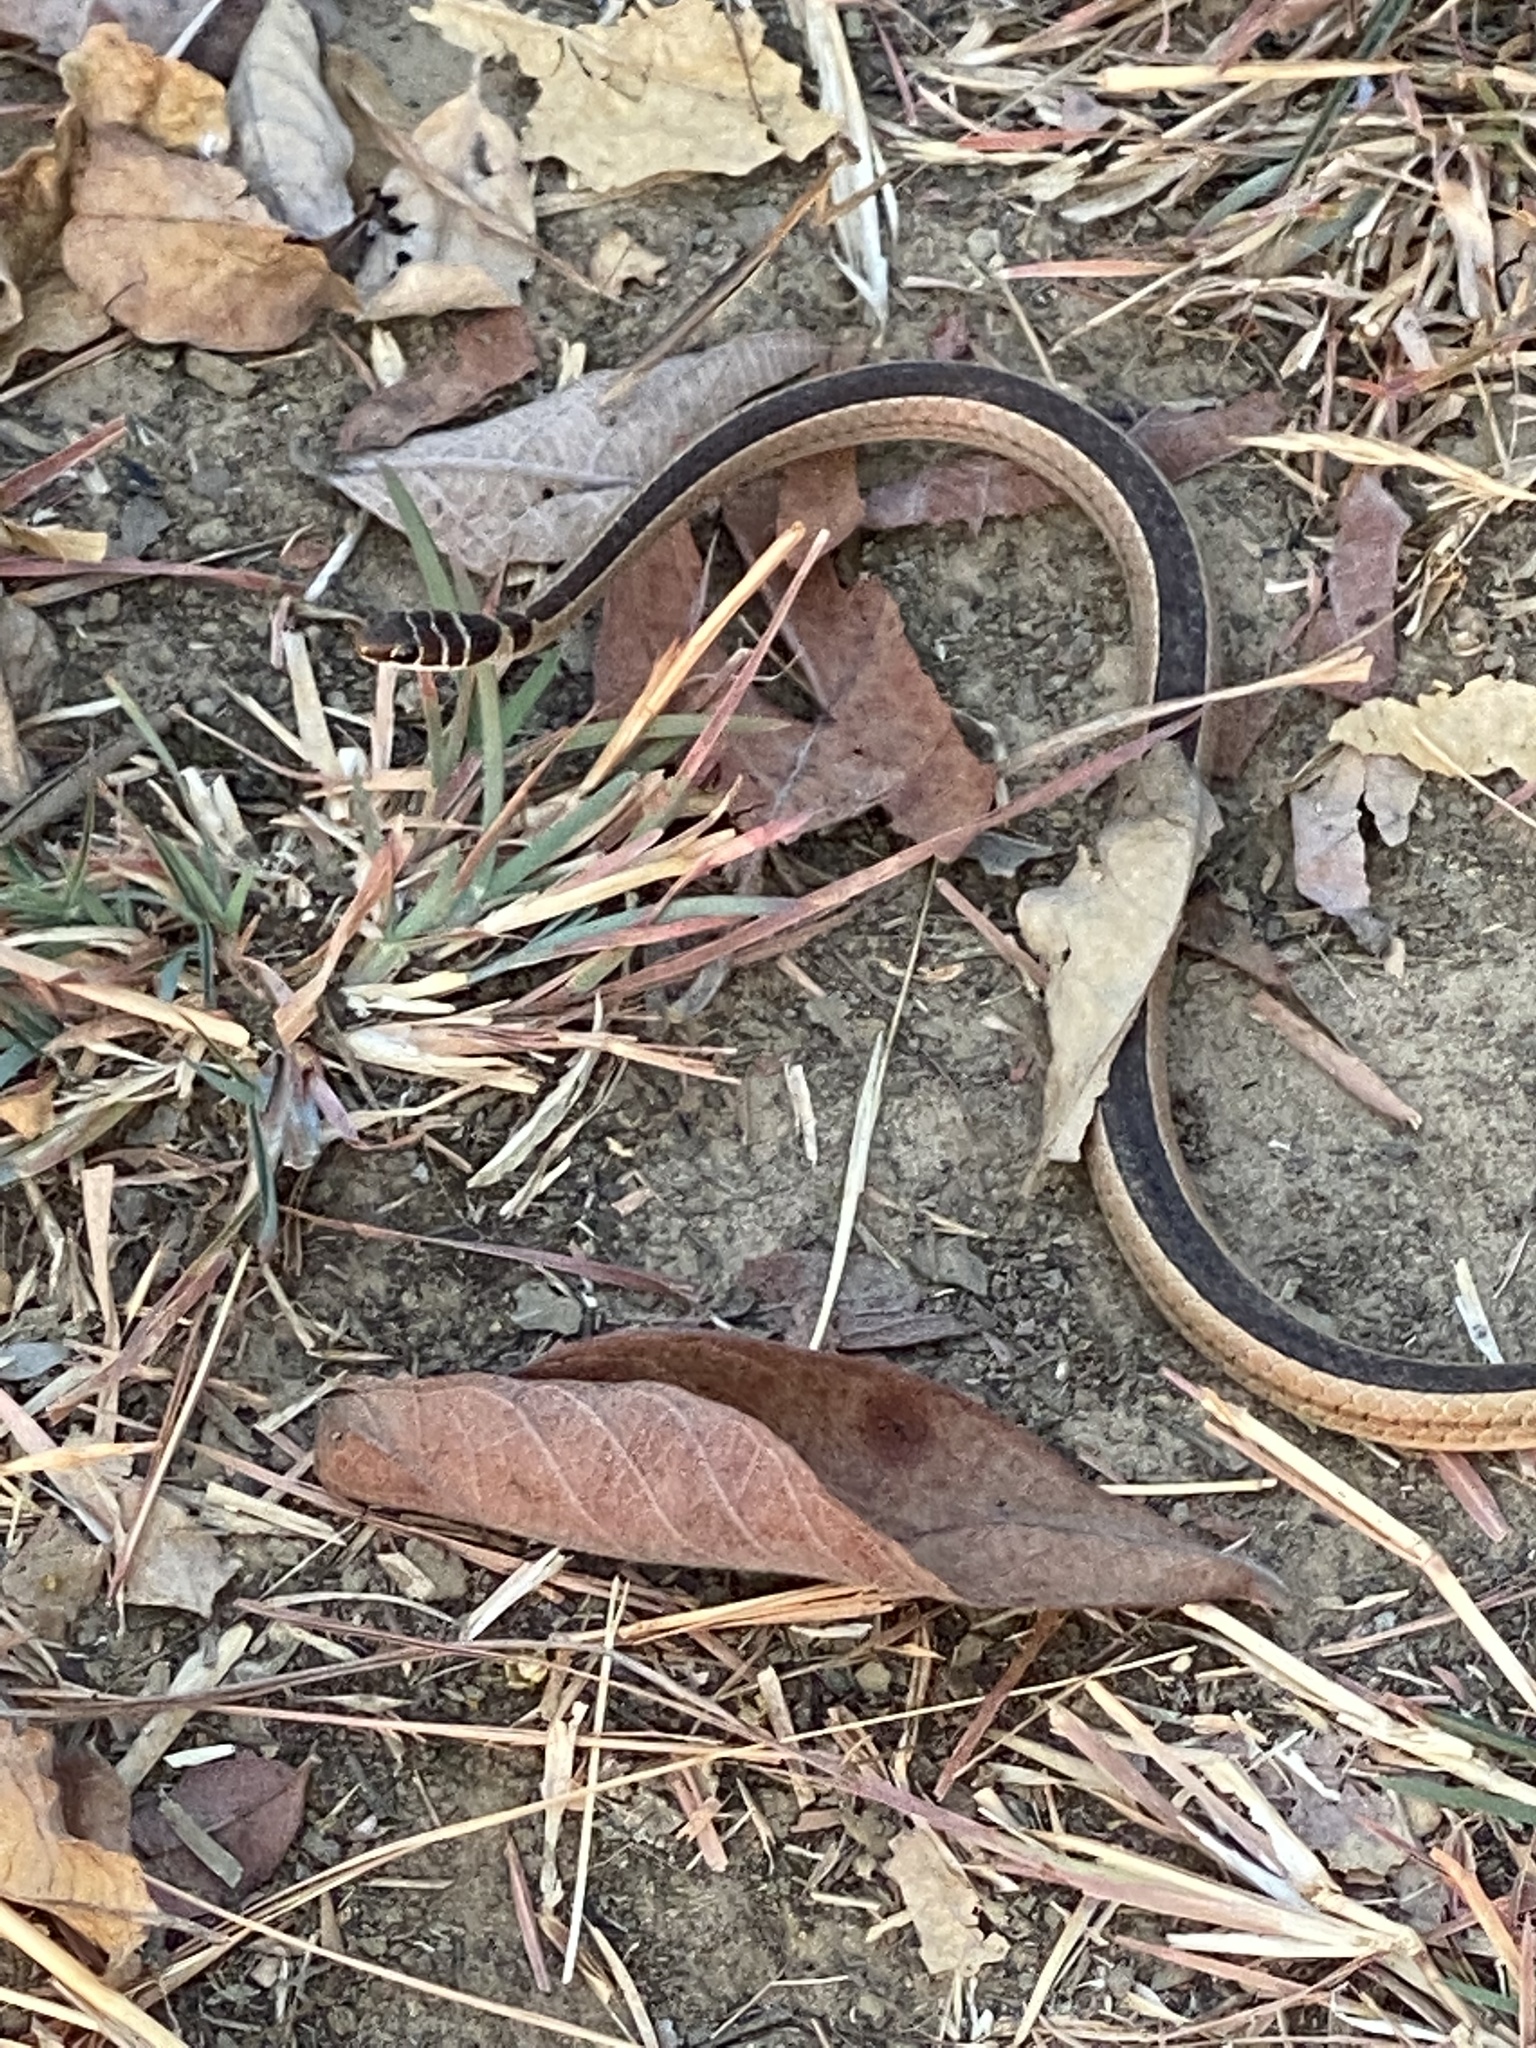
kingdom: Animalia
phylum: Chordata
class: Squamata
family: Psammophiidae
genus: Psammophis
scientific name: Psammophis angolensis
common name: Dwarf sand snake
